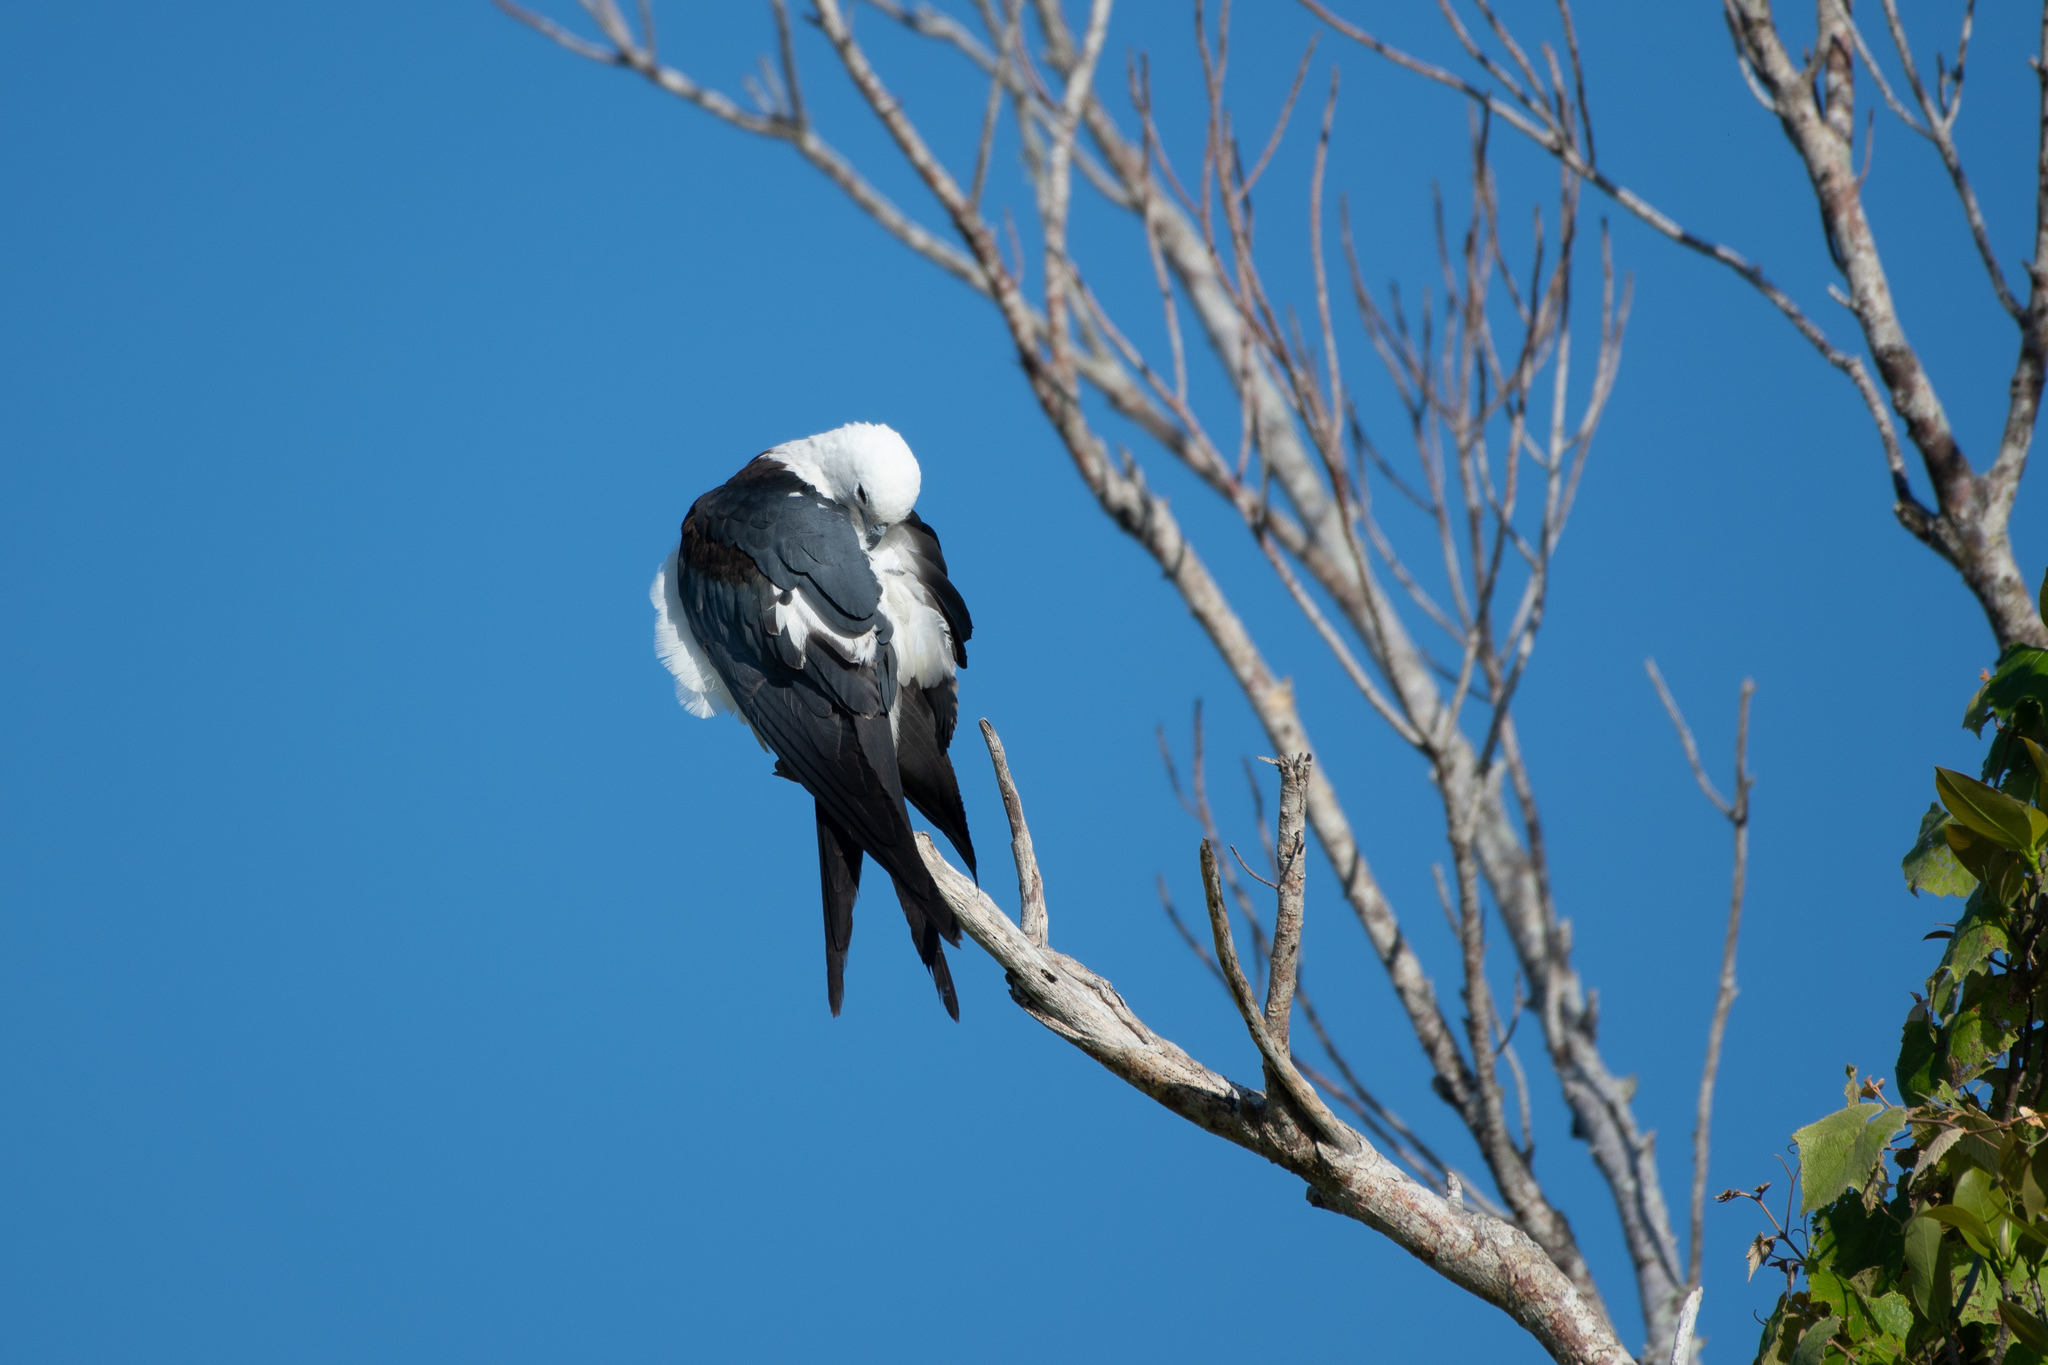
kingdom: Animalia
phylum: Chordata
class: Aves
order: Accipitriformes
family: Accipitridae
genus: Elanoides
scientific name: Elanoides forficatus
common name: Swallow-tailed kite
